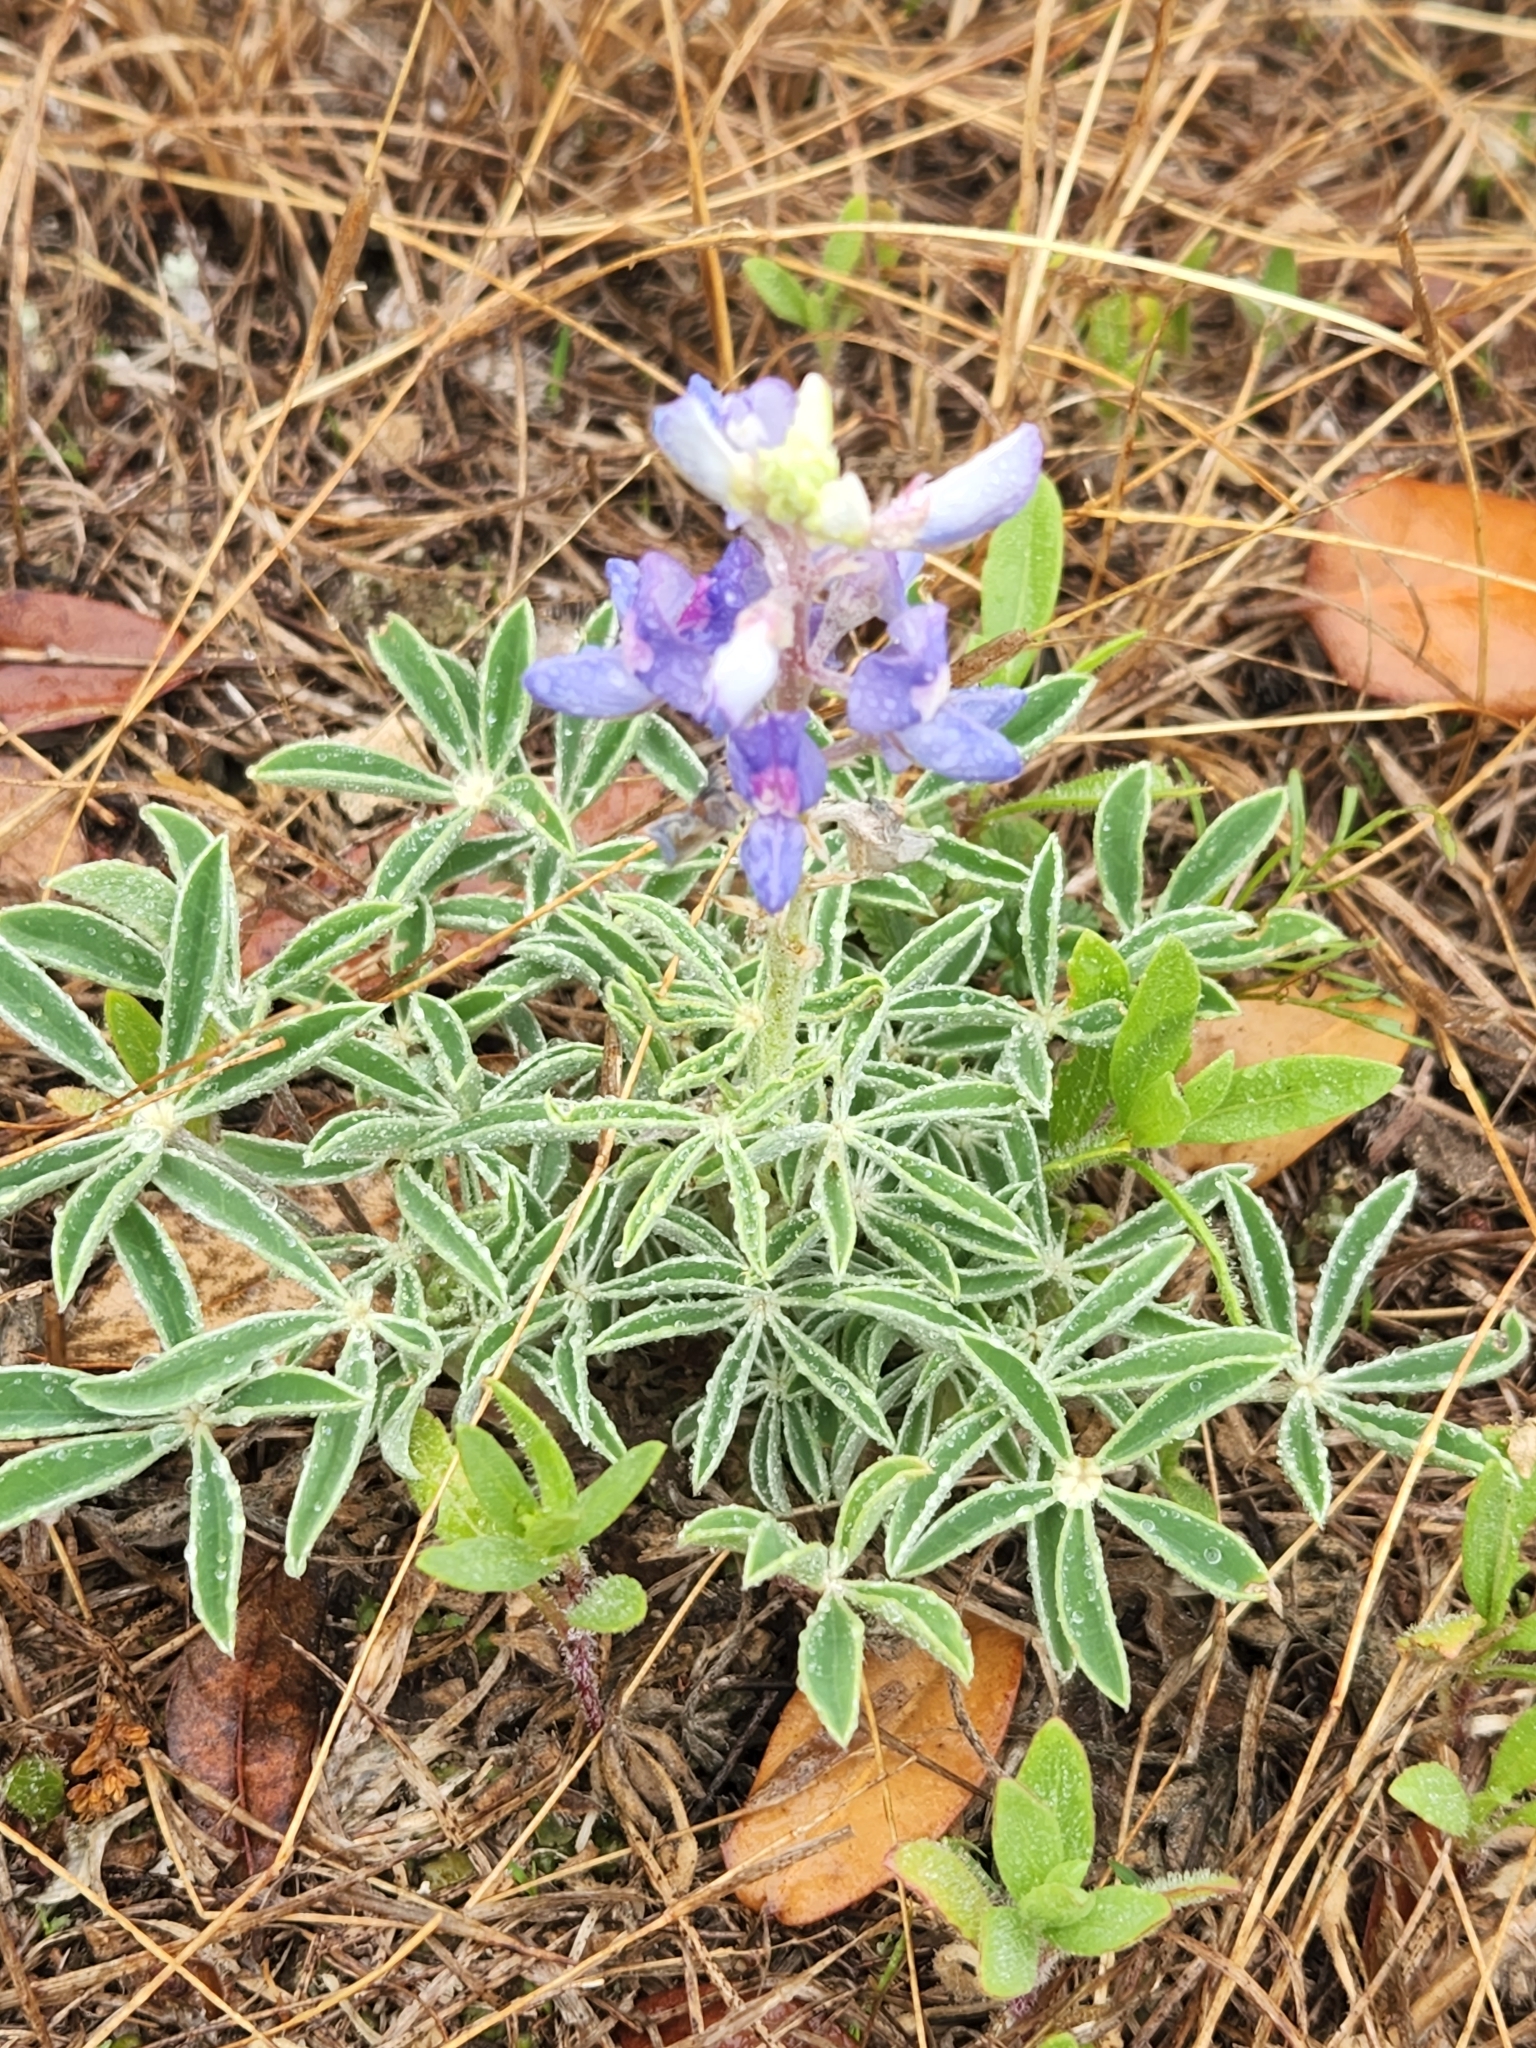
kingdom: Plantae
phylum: Tracheophyta
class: Magnoliopsida
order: Fabales
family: Fabaceae
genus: Lupinus
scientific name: Lupinus texensis
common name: Texas bluebonnet
